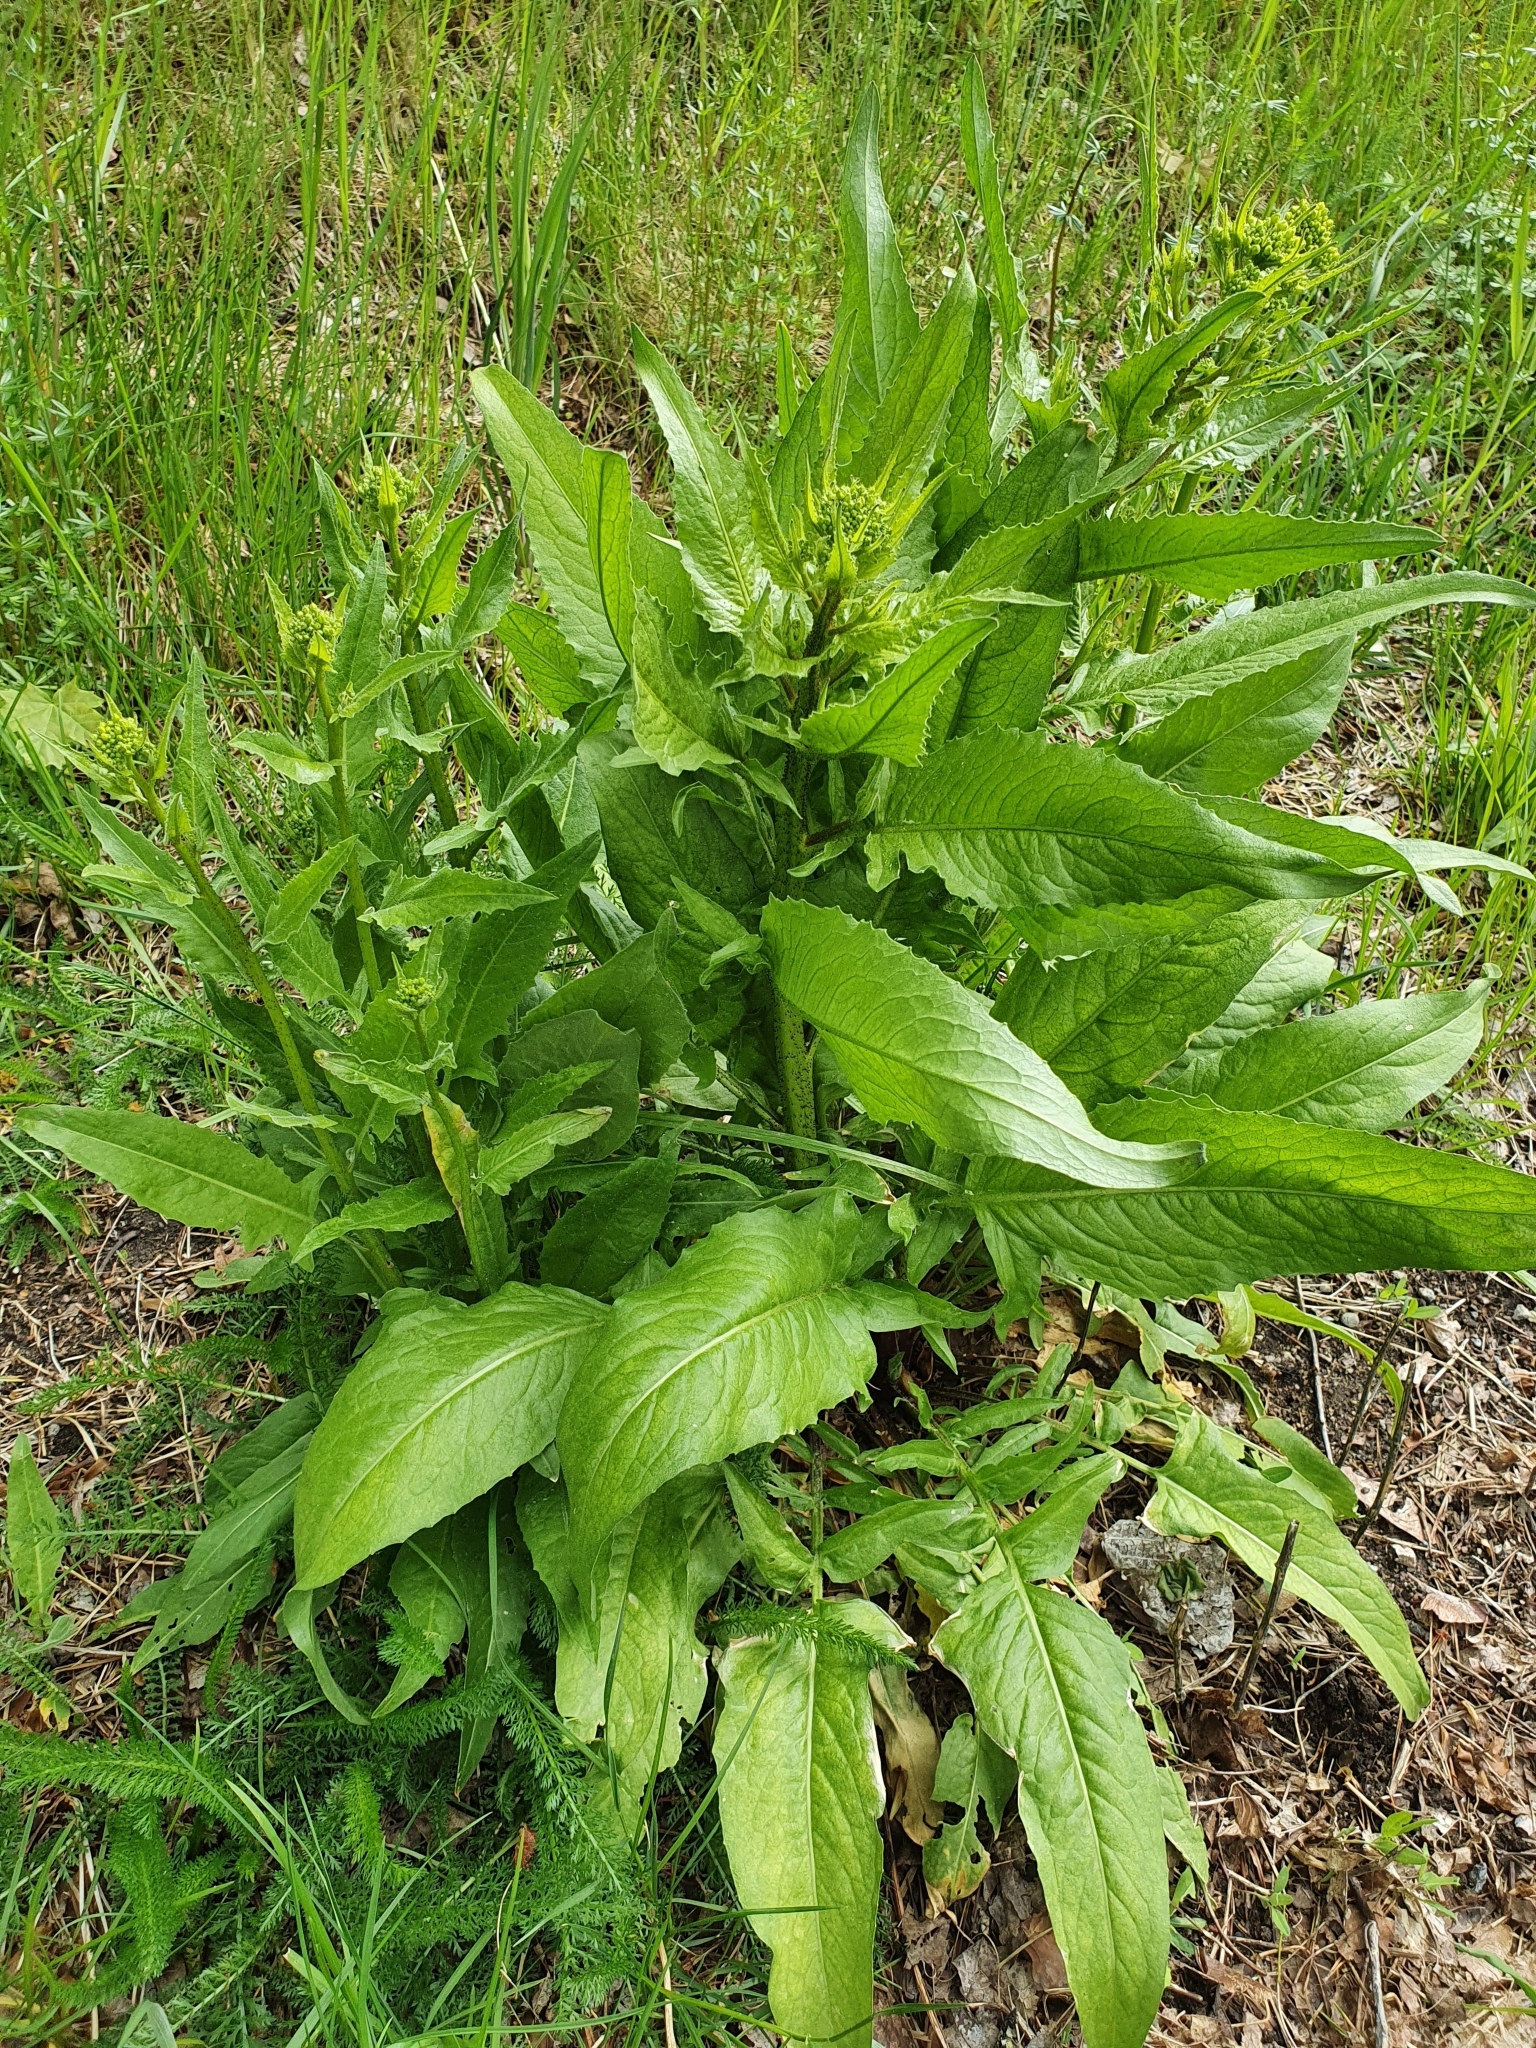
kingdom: Plantae
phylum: Tracheophyta
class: Magnoliopsida
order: Brassicales
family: Brassicaceae
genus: Bunias
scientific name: Bunias orientalis
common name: Warty-cabbage
